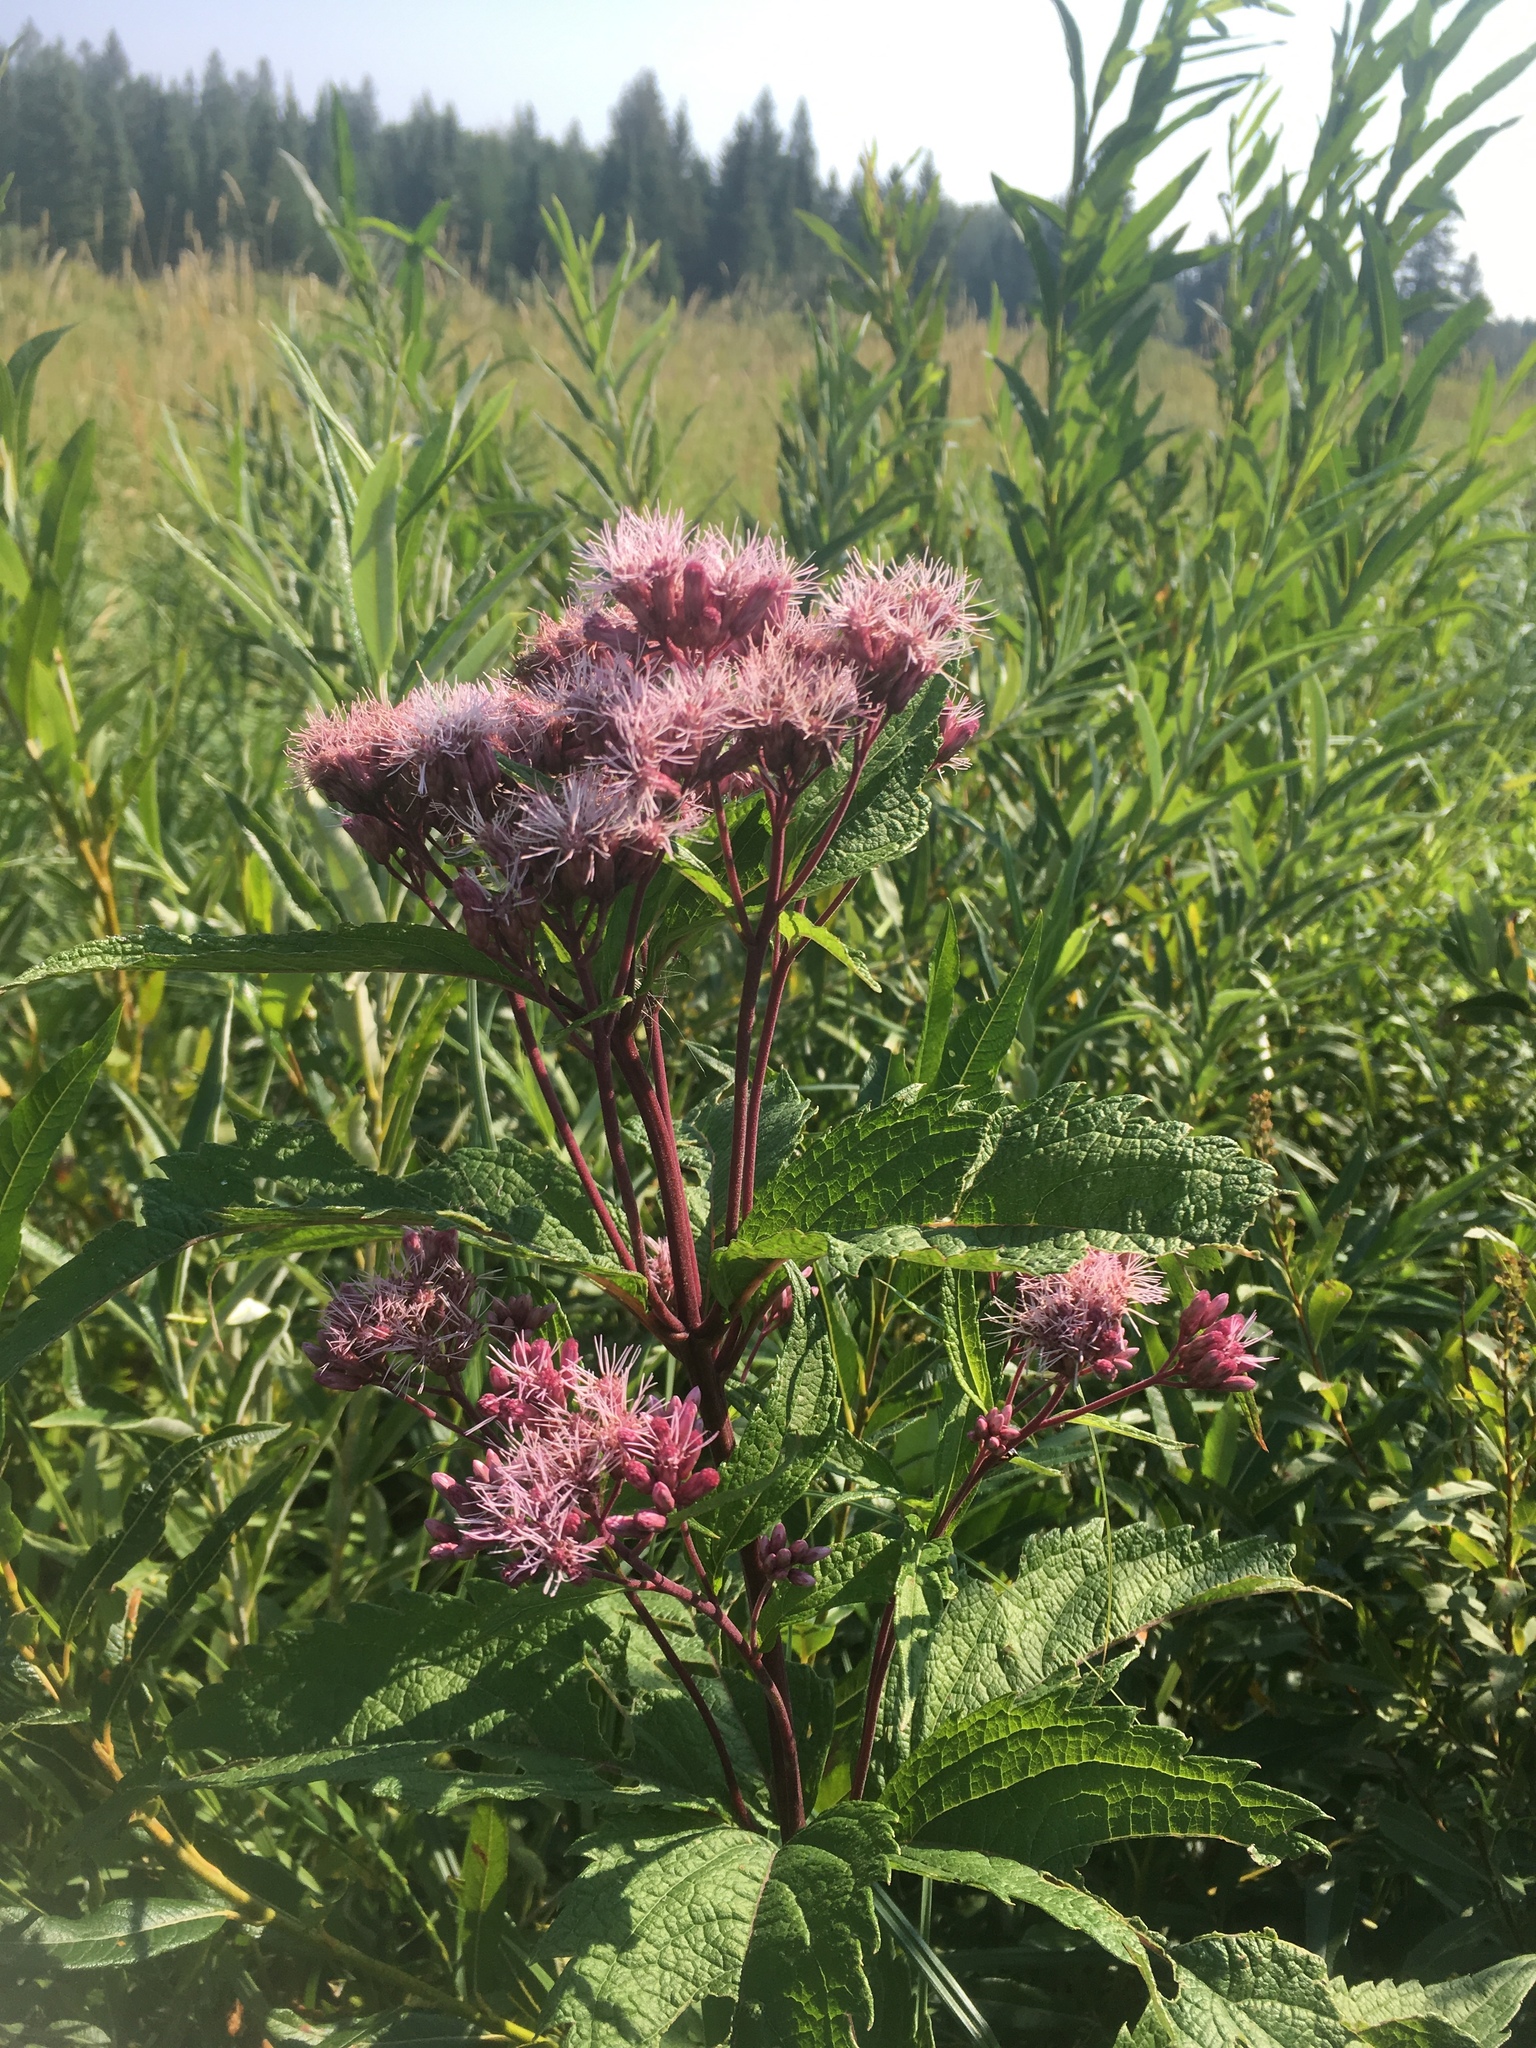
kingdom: Plantae
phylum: Tracheophyta
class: Magnoliopsida
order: Asterales
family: Asteraceae
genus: Eutrochium
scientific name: Eutrochium maculatum
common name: Spotted joe pye weed
